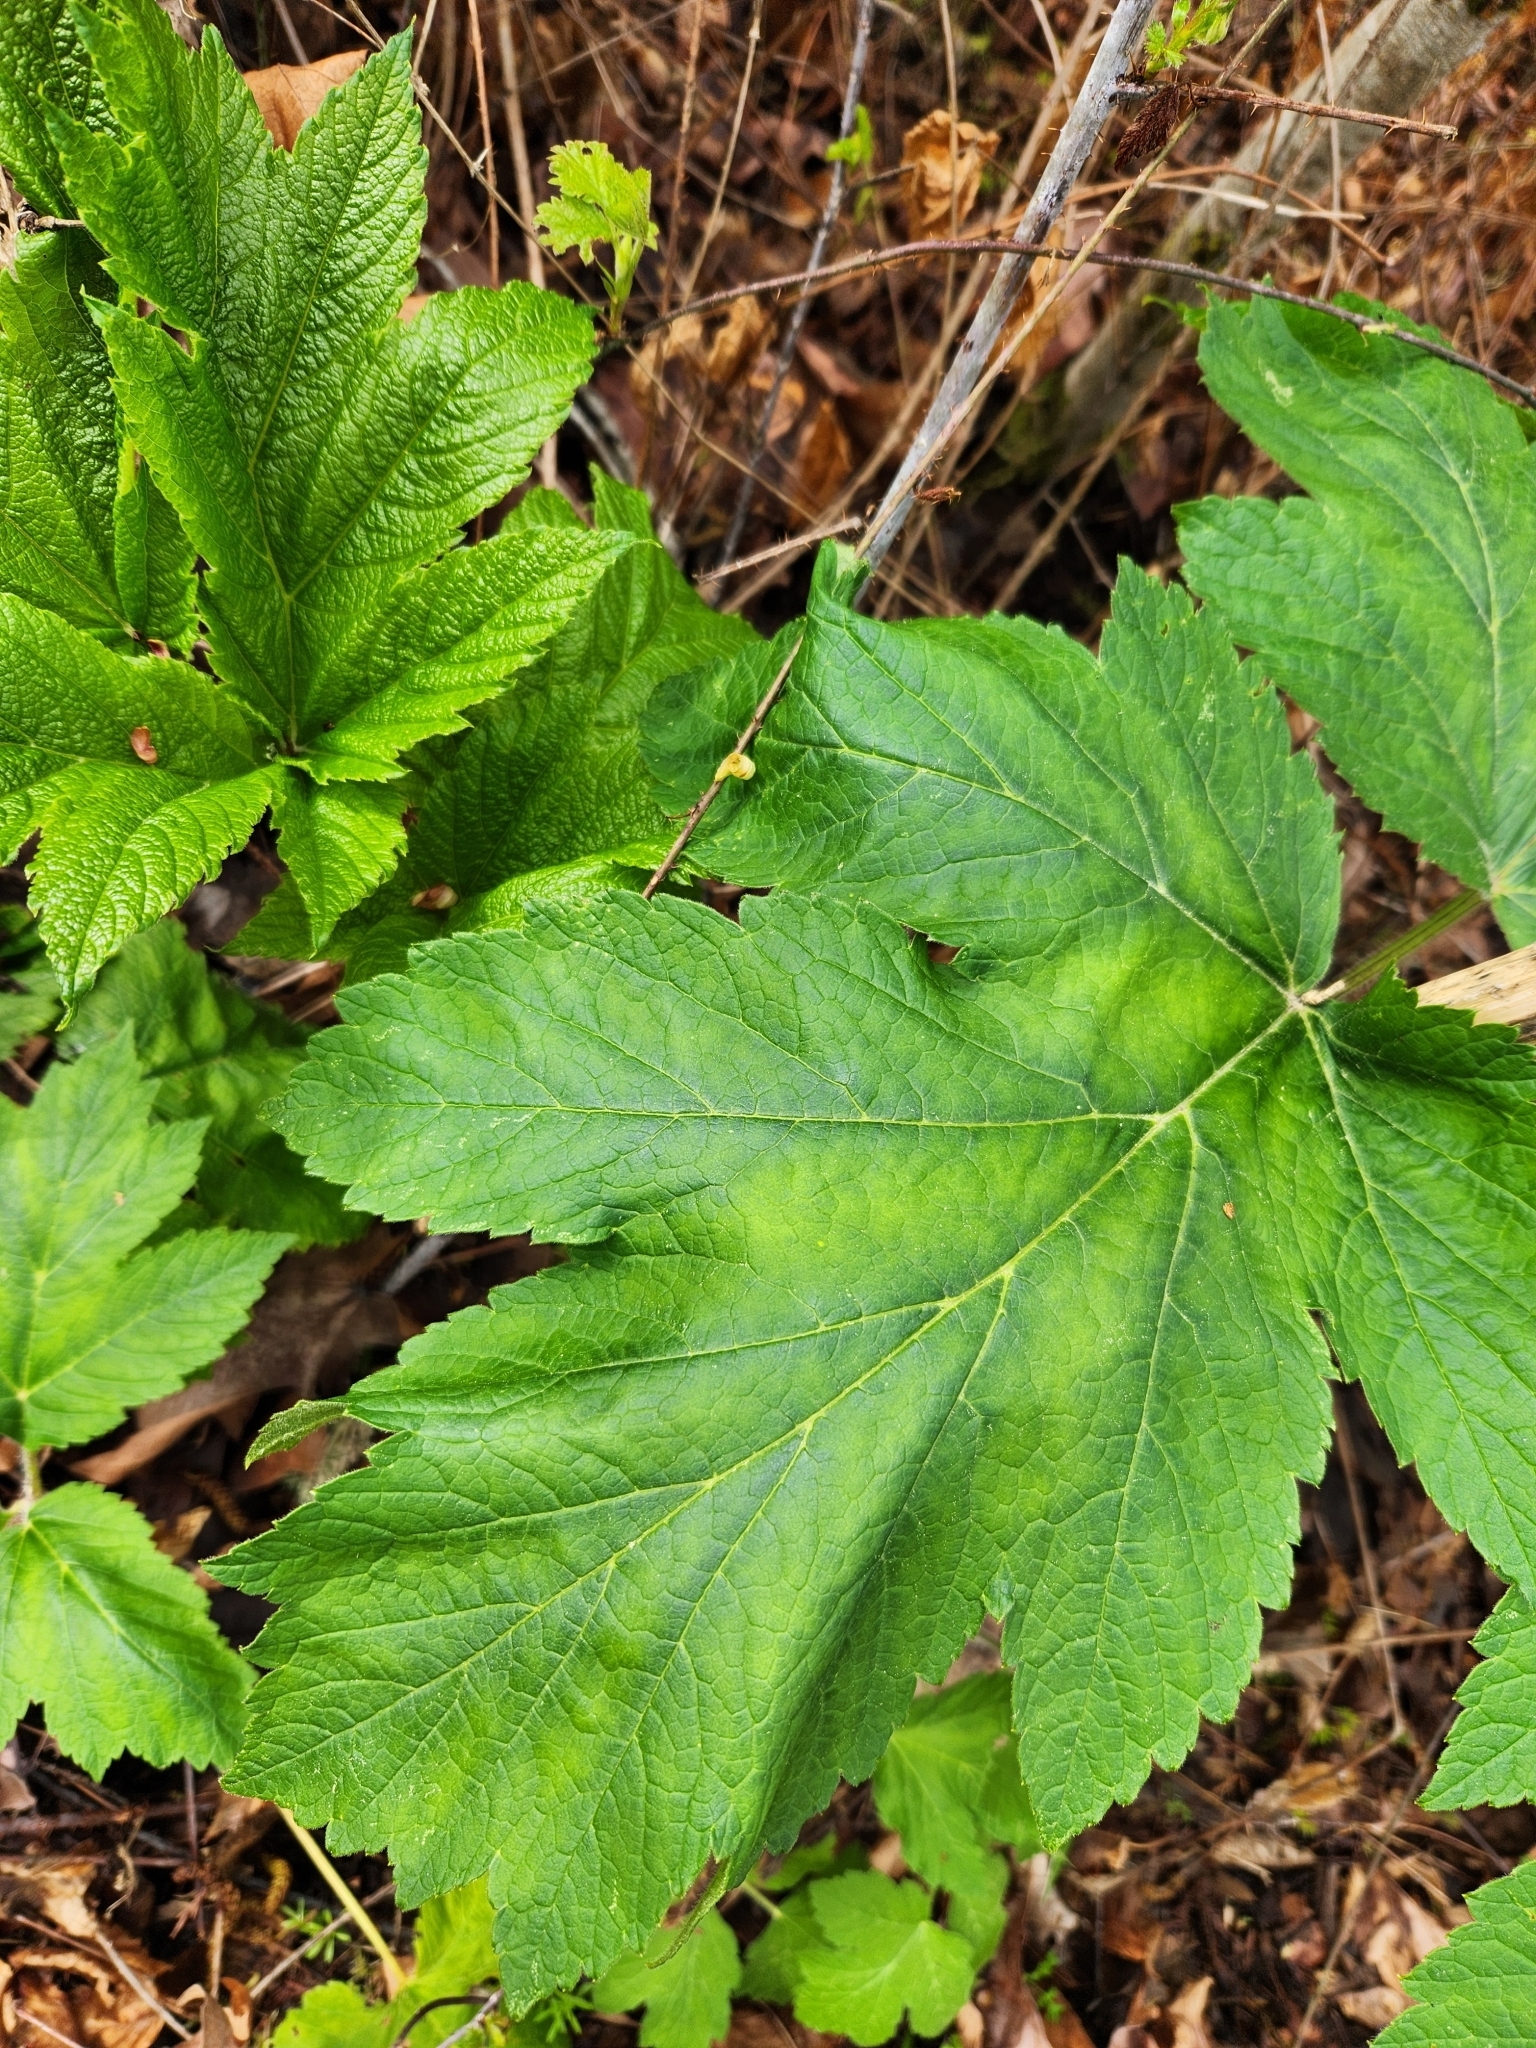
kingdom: Plantae
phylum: Tracheophyta
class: Magnoliopsida
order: Apiales
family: Apiaceae
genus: Heracleum
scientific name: Heracleum maximum
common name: American cow parsnip
